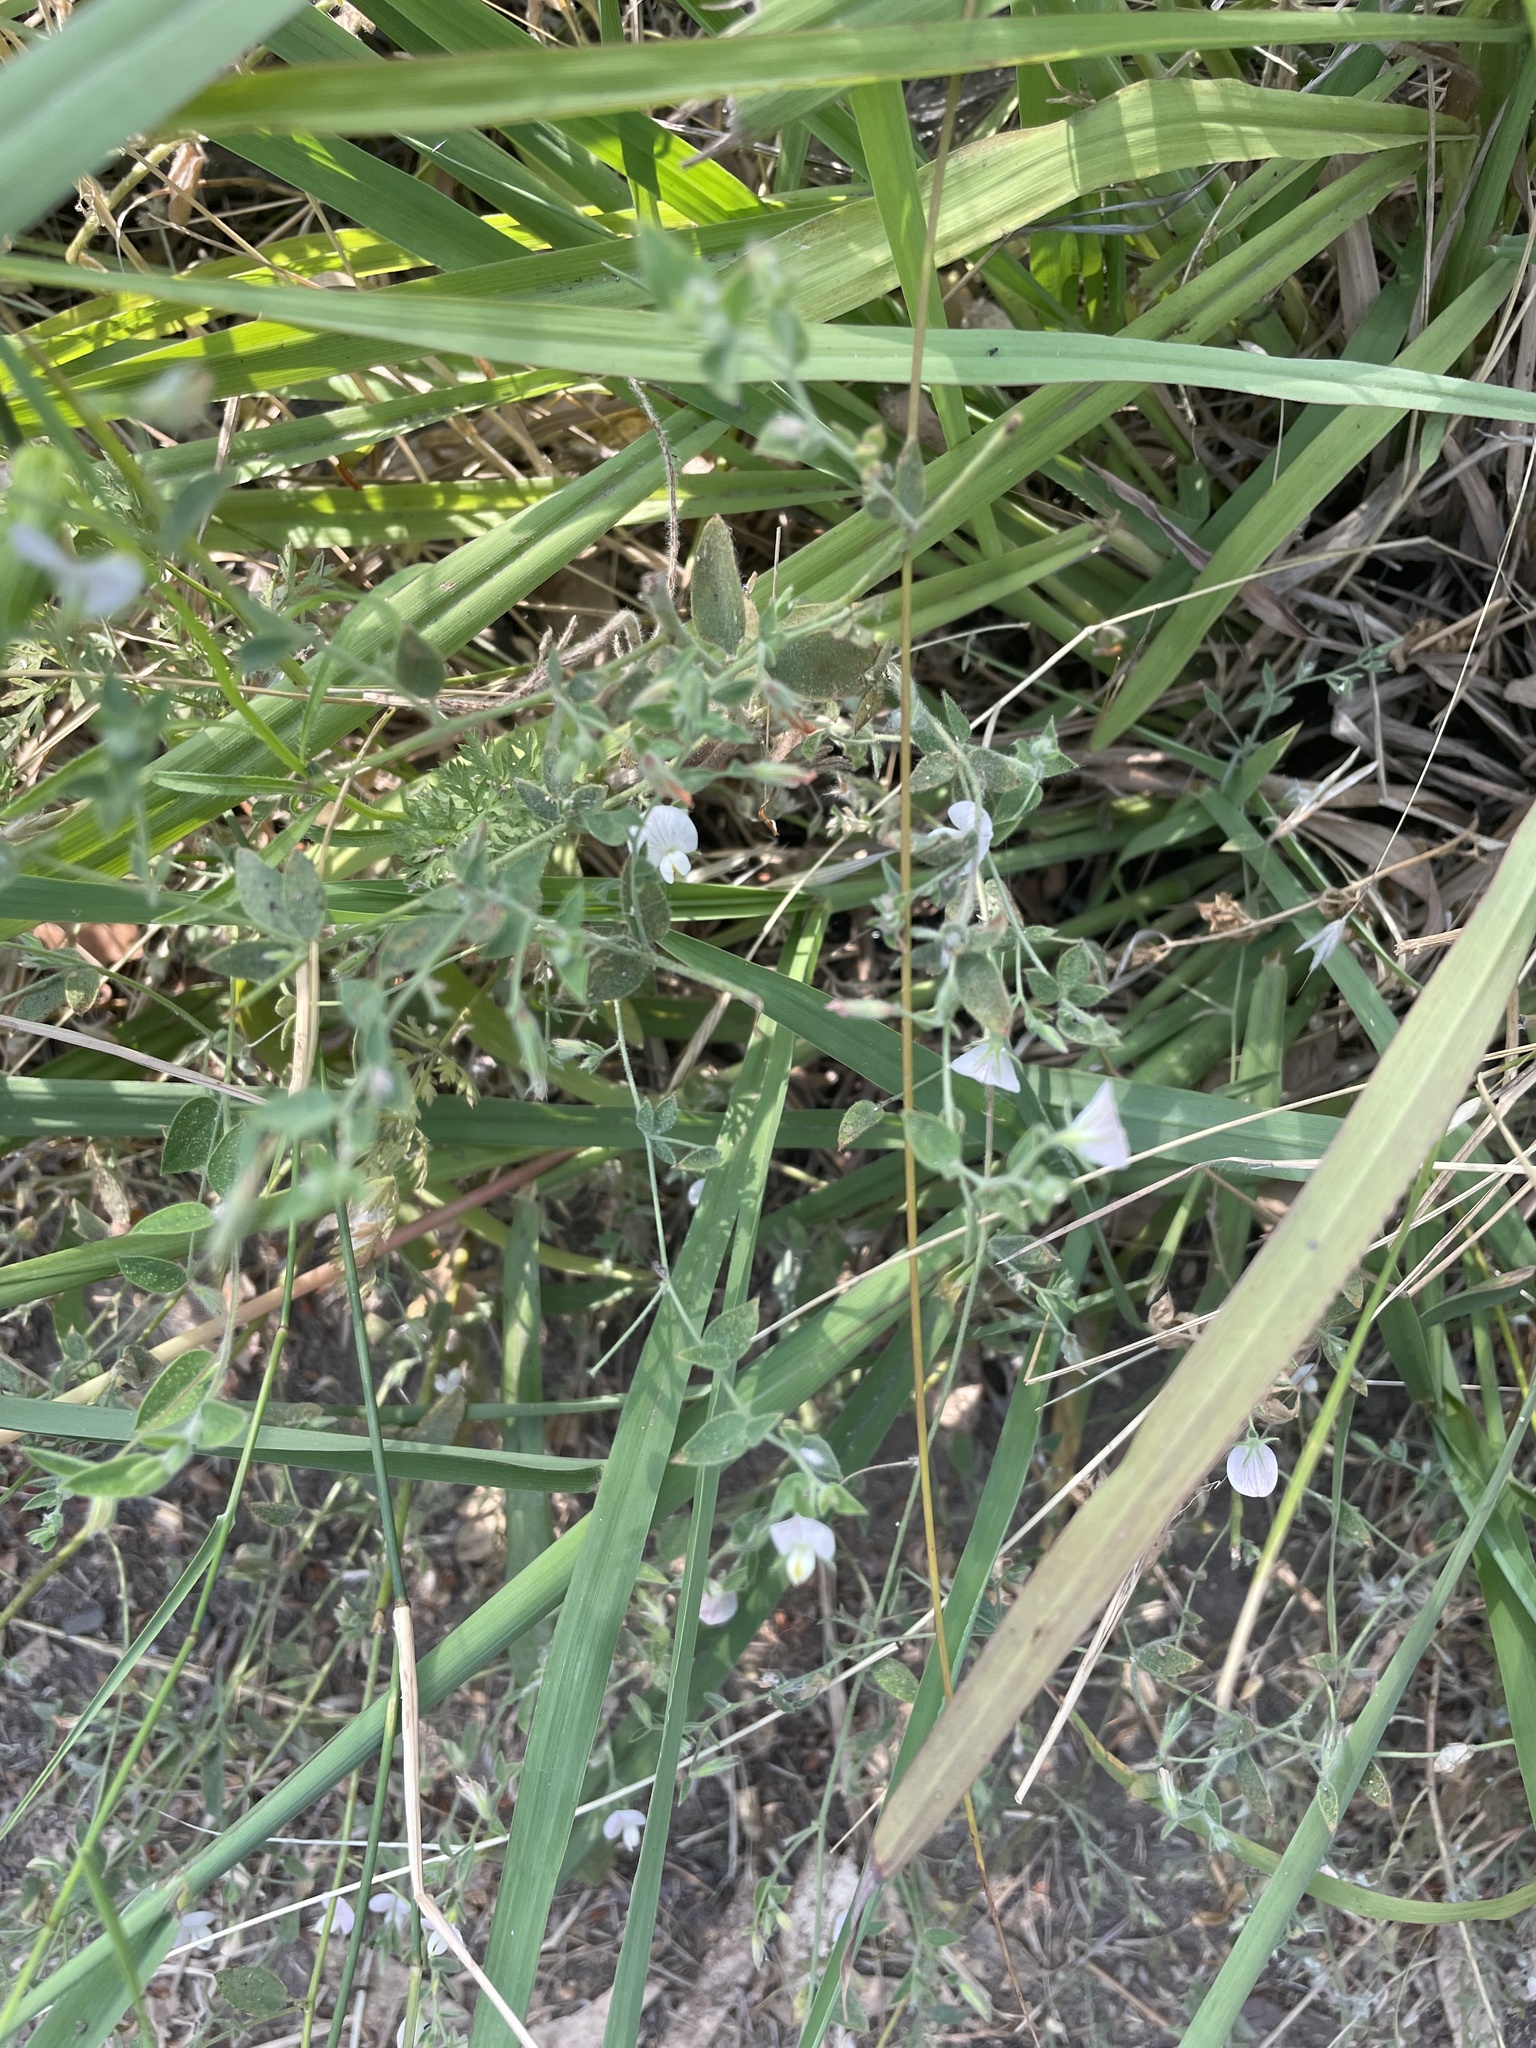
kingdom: Plantae
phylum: Tracheophyta
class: Magnoliopsida
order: Fabales
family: Fabaceae
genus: Acmispon
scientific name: Acmispon americanus
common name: American bird's-foot trefoil
